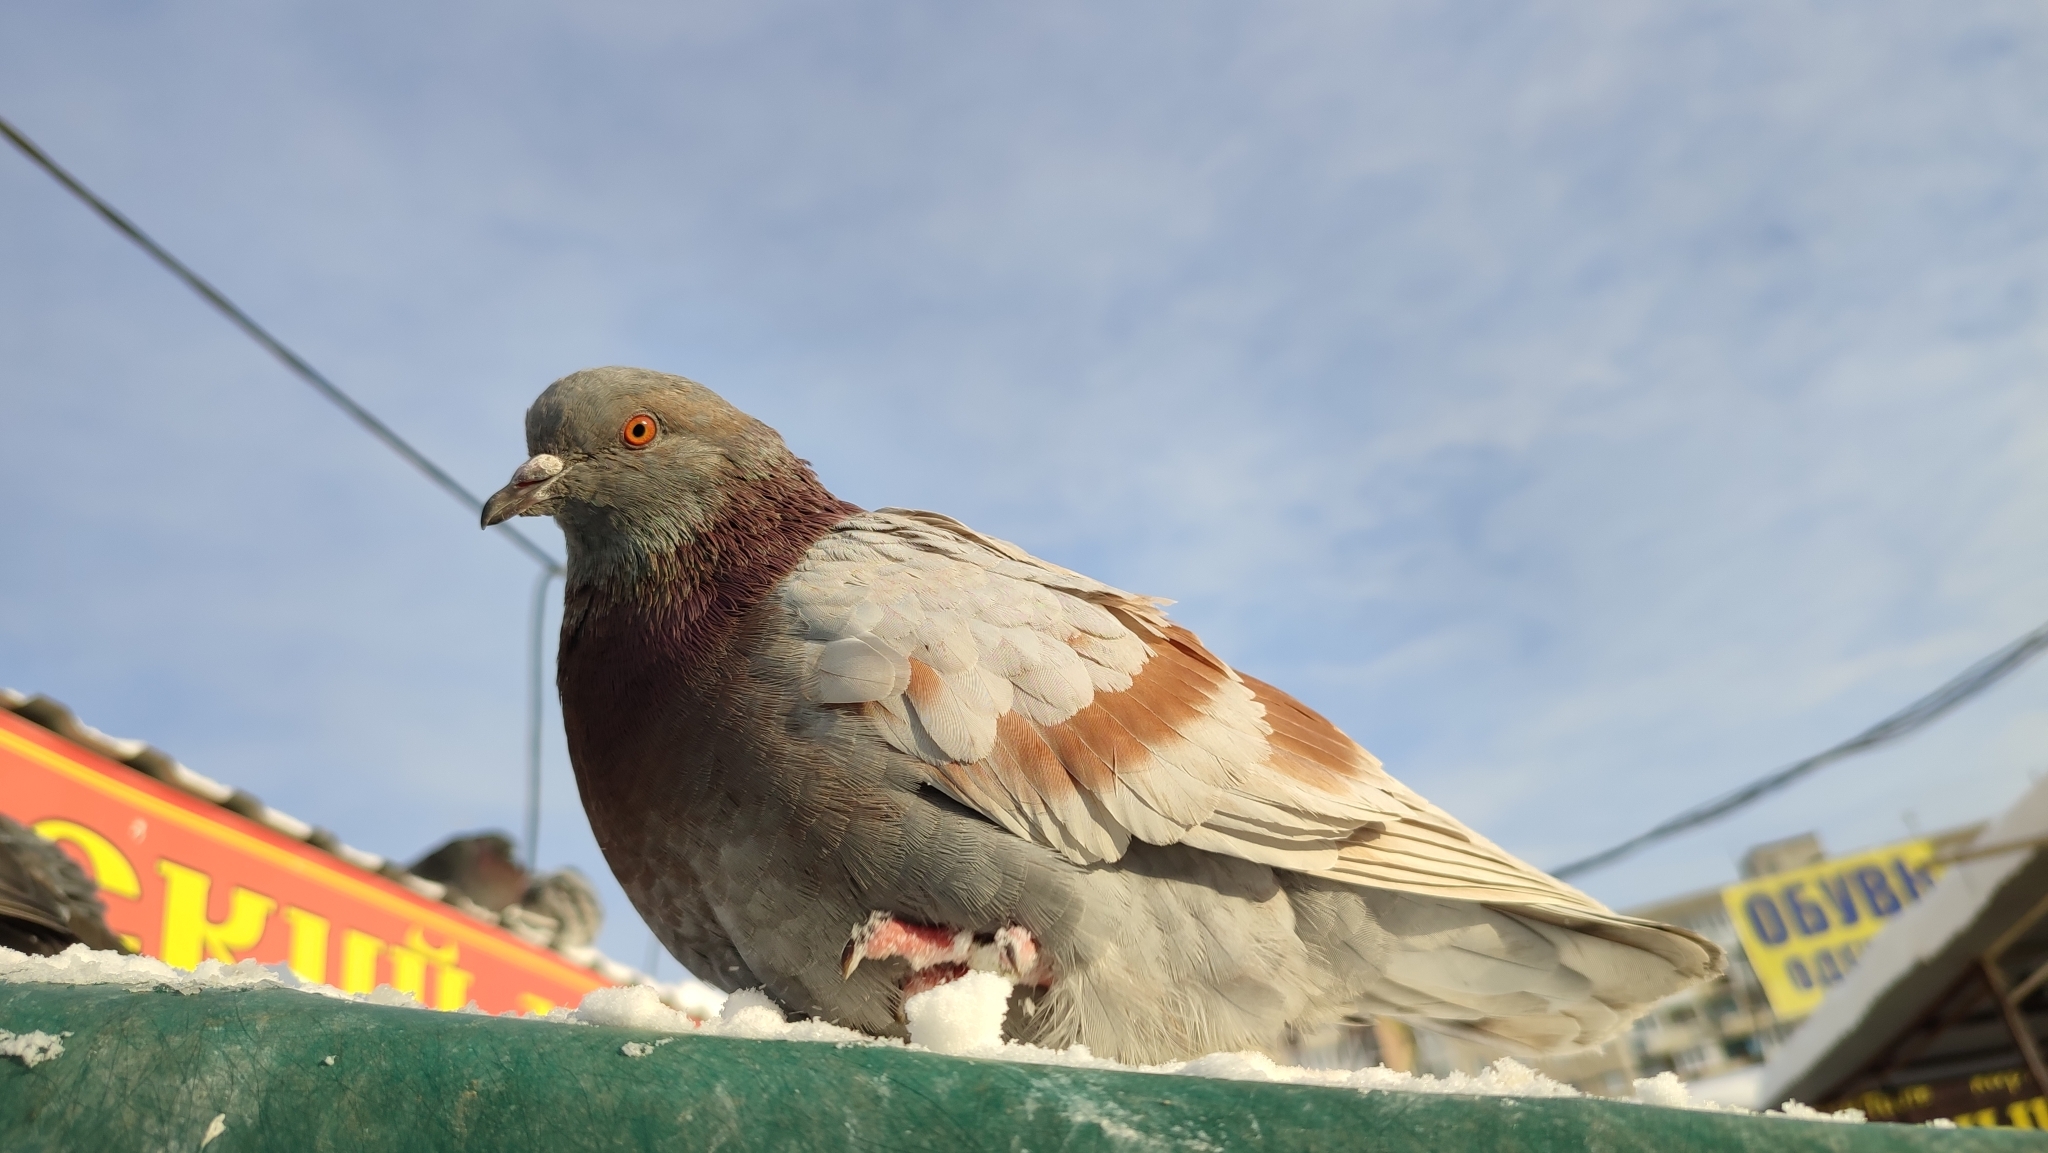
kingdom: Animalia
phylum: Chordata
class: Aves
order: Columbiformes
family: Columbidae
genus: Columba
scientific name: Columba livia
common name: Rock pigeon
